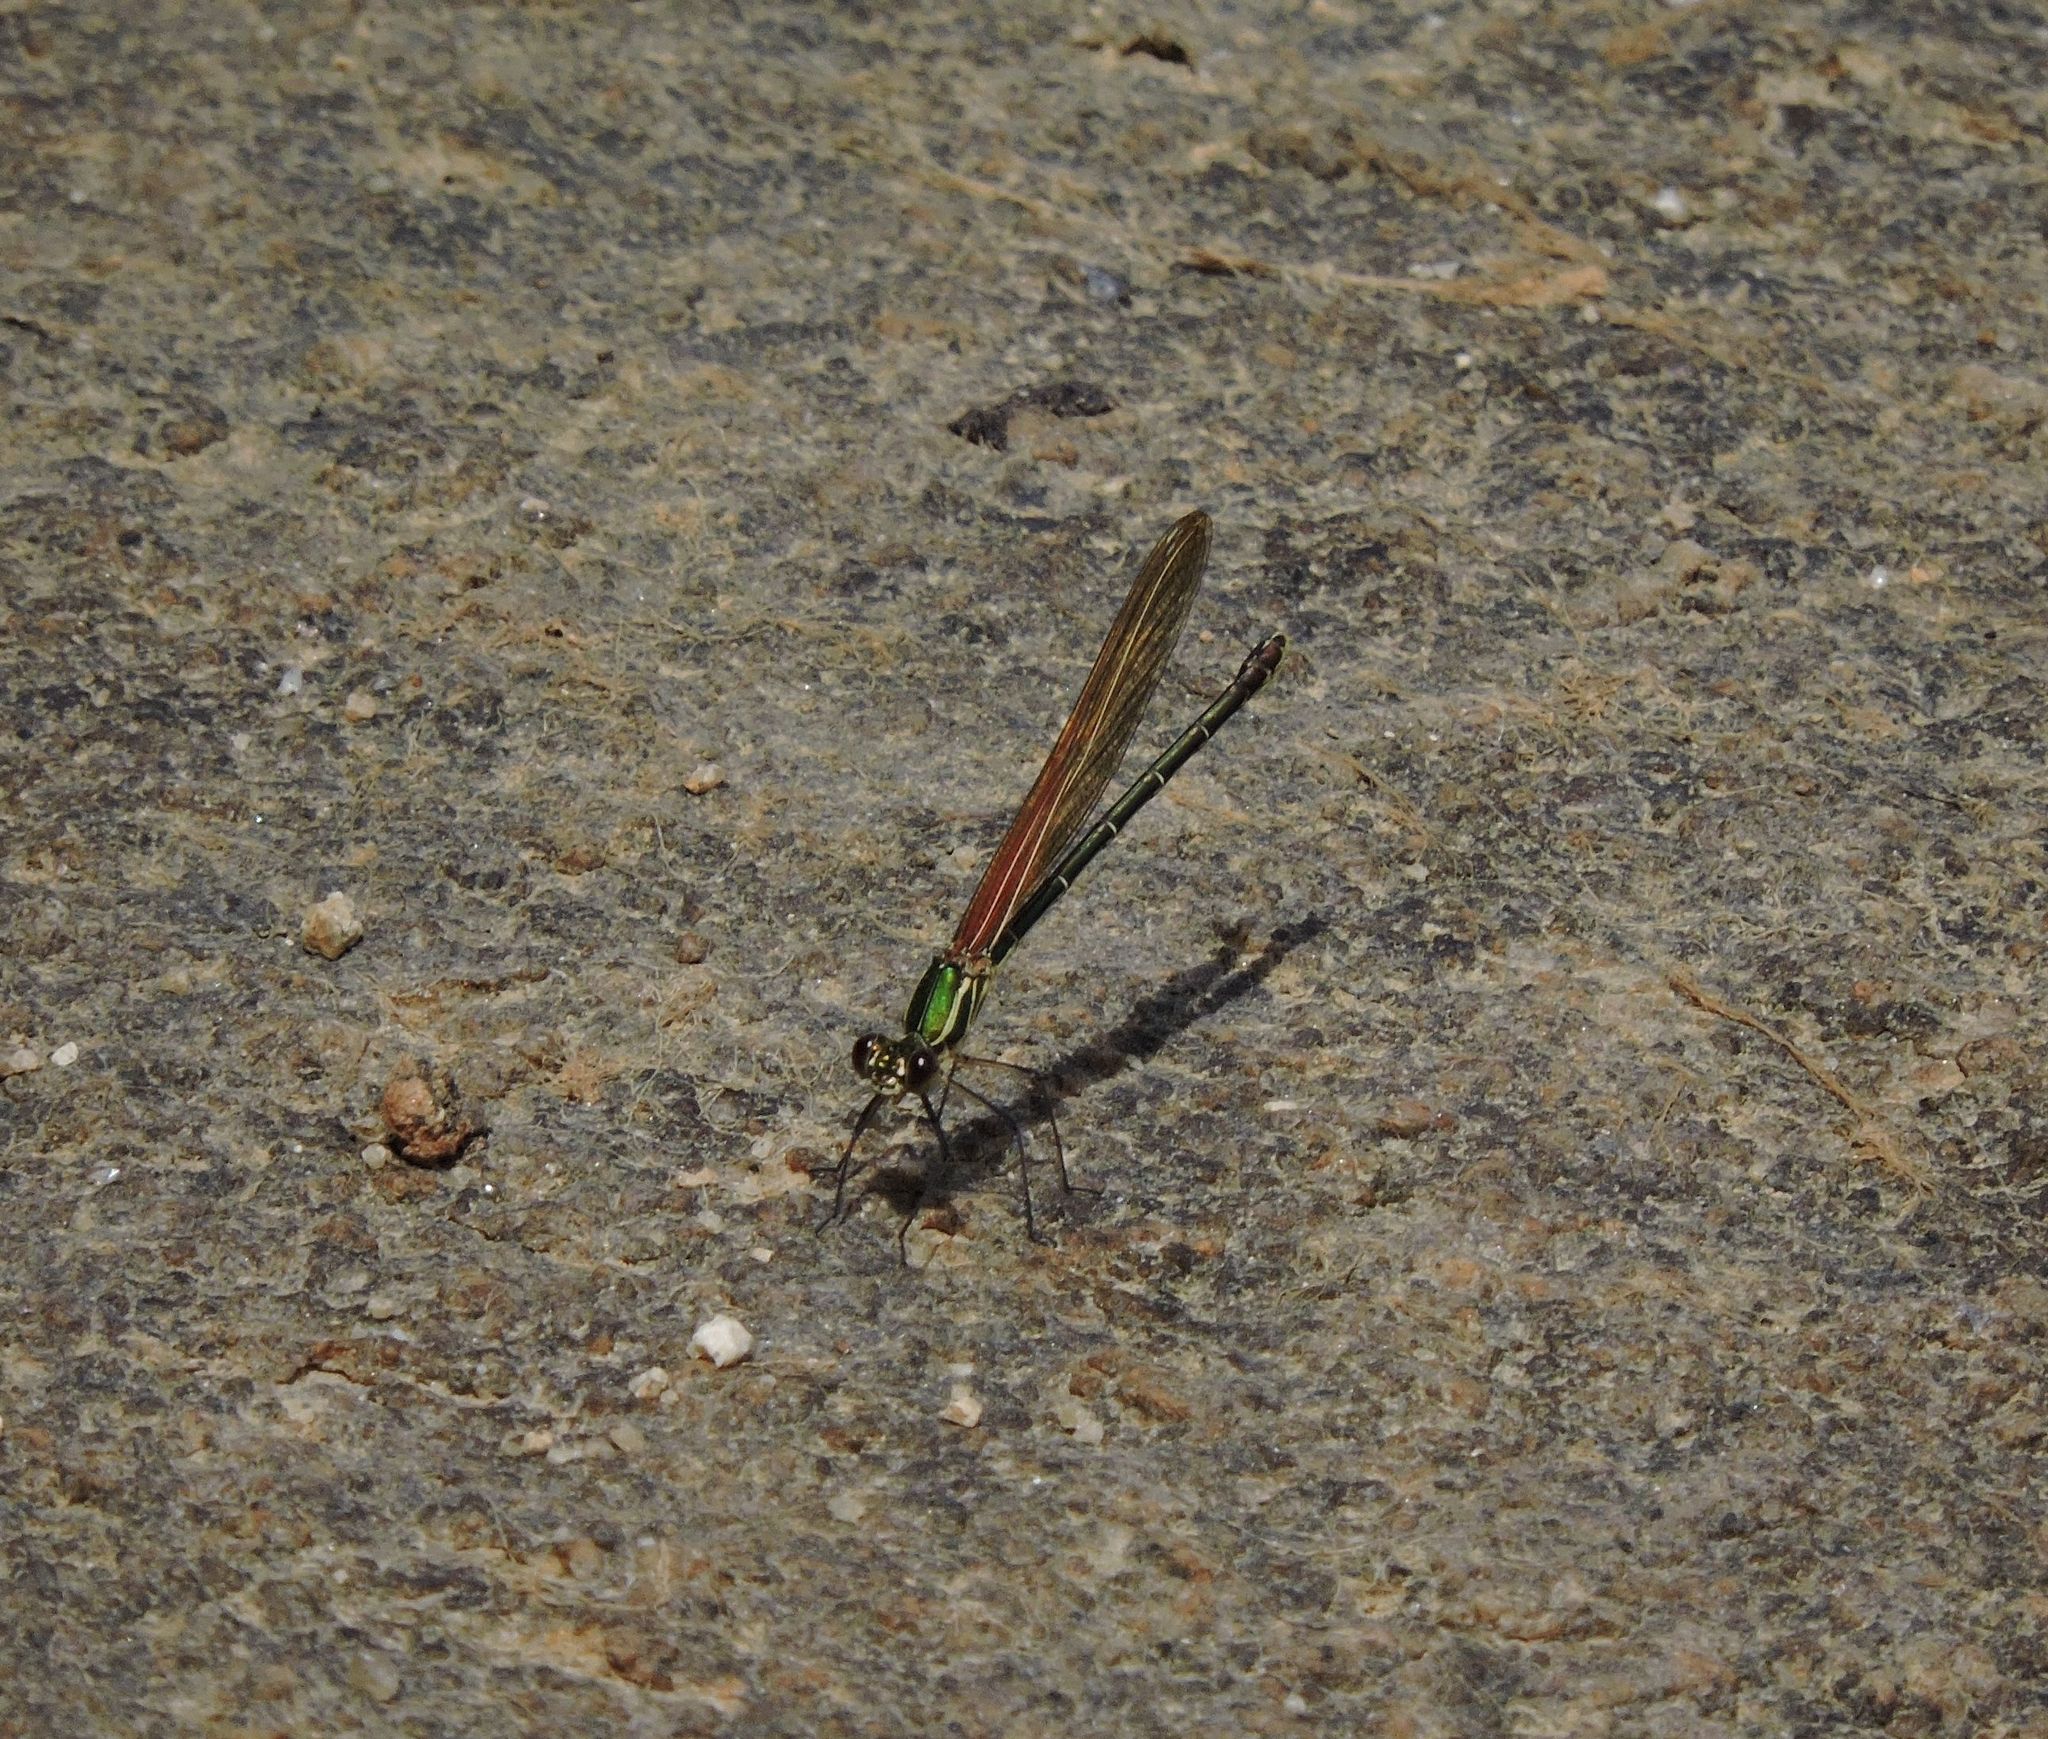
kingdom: Animalia
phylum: Arthropoda
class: Insecta
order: Odonata
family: Calopterygidae
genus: Hetaerina
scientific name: Hetaerina americana
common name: American rubyspot
